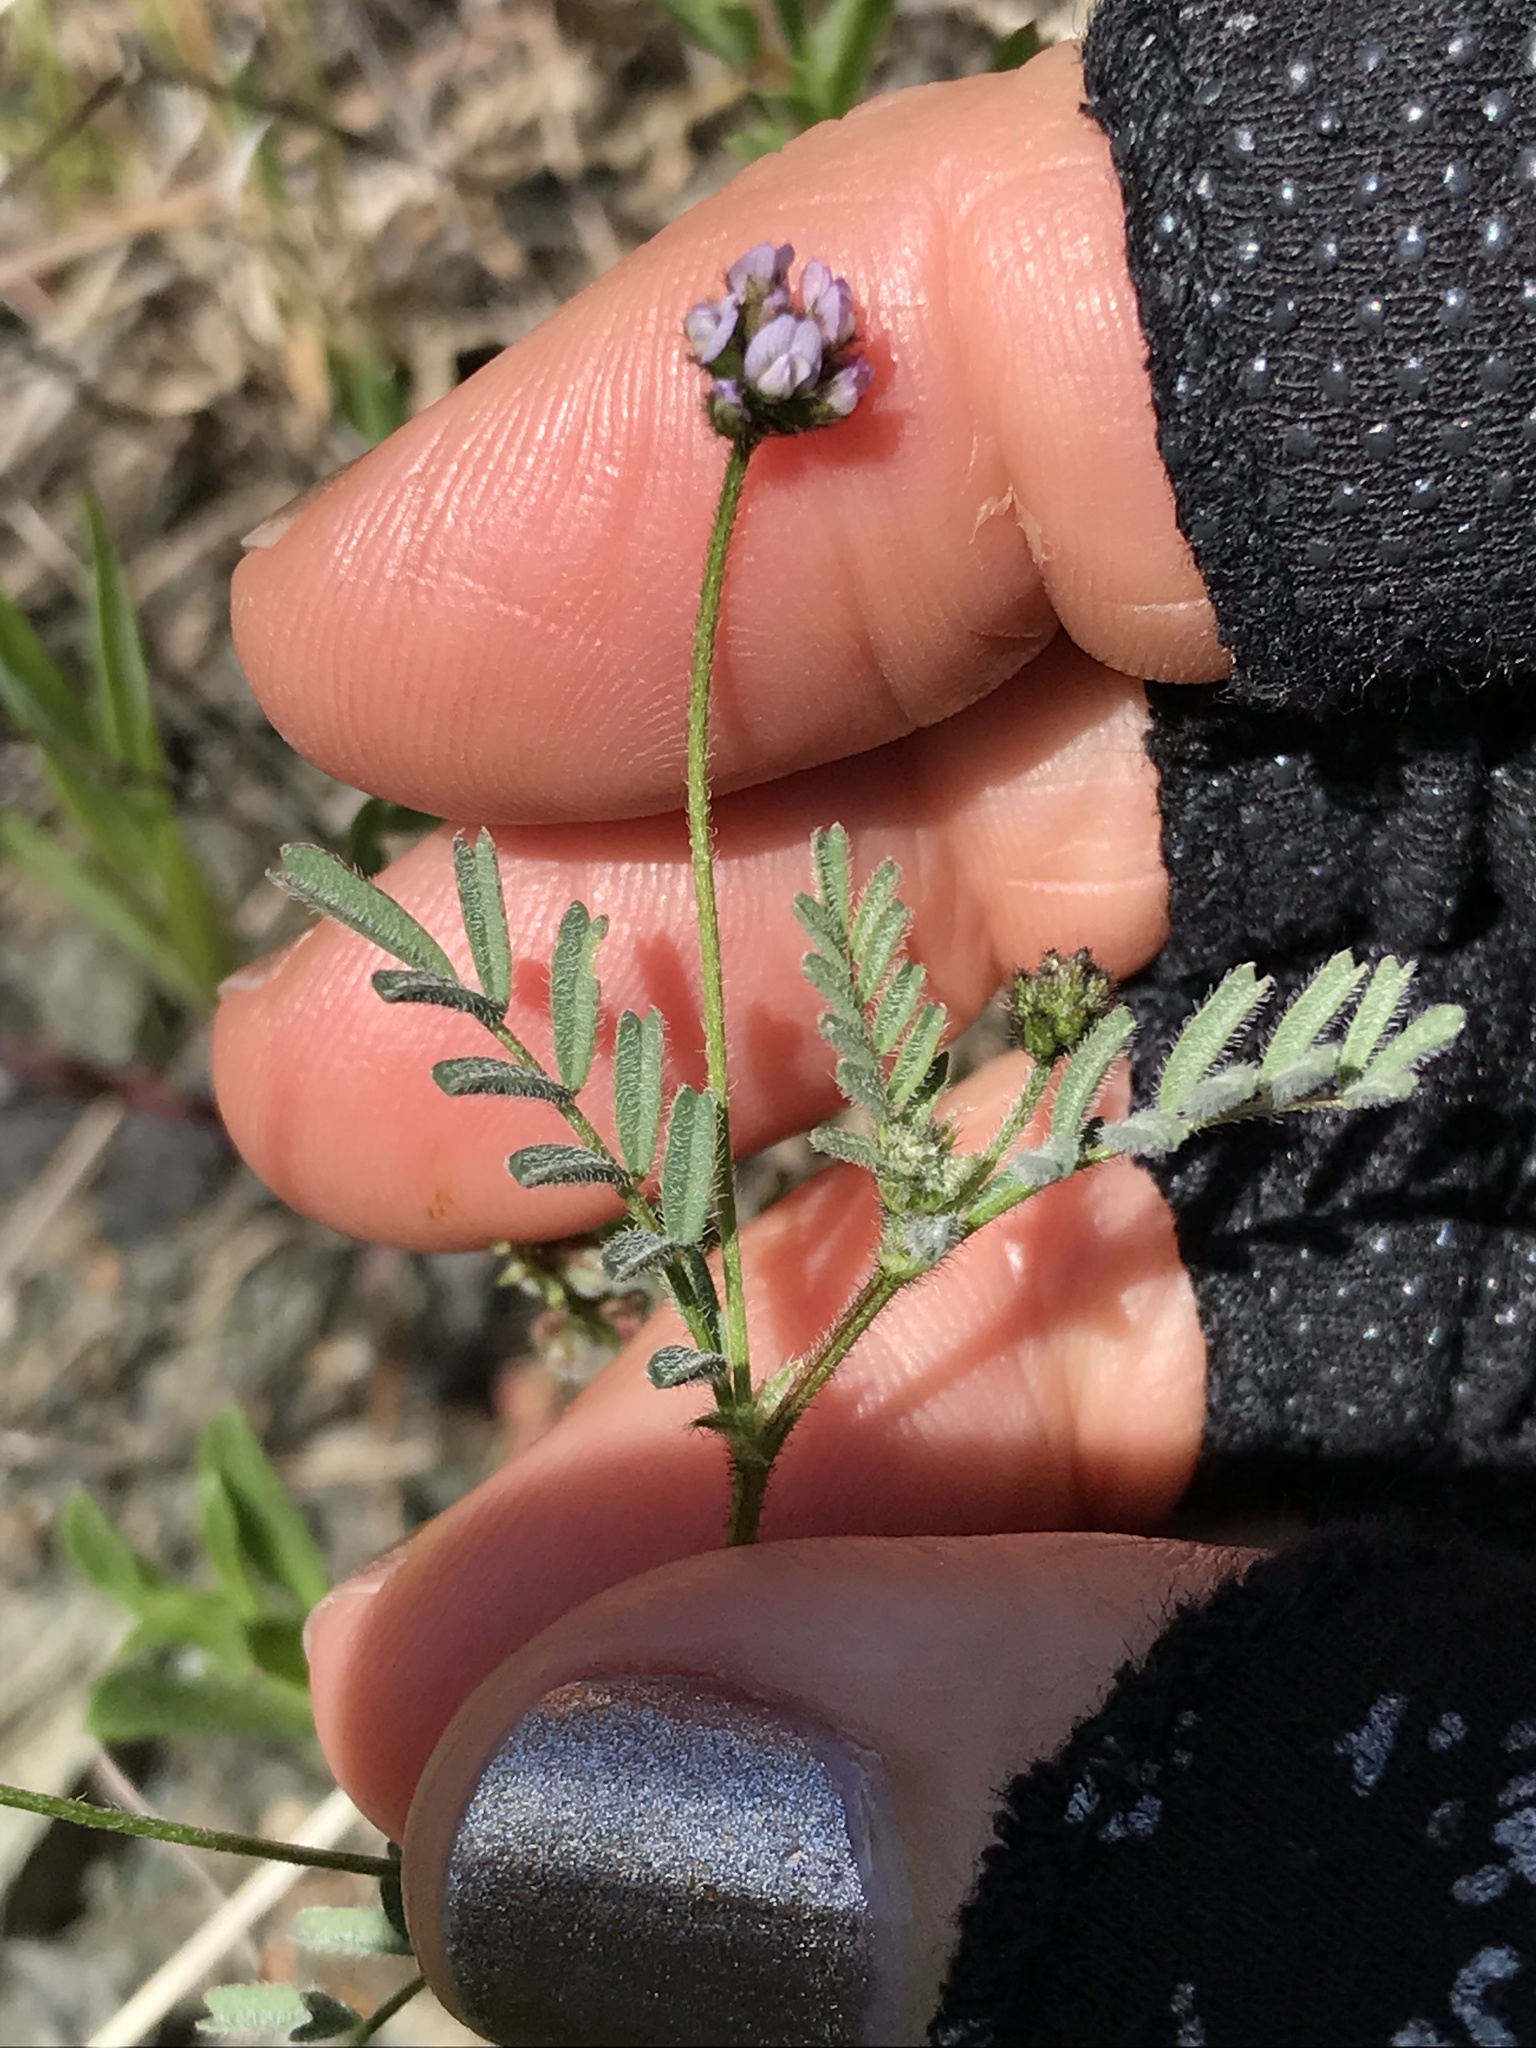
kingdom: Plantae
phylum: Tracheophyta
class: Magnoliopsida
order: Fabales
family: Fabaceae
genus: Astragalus
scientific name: Astragalus gambelianus
